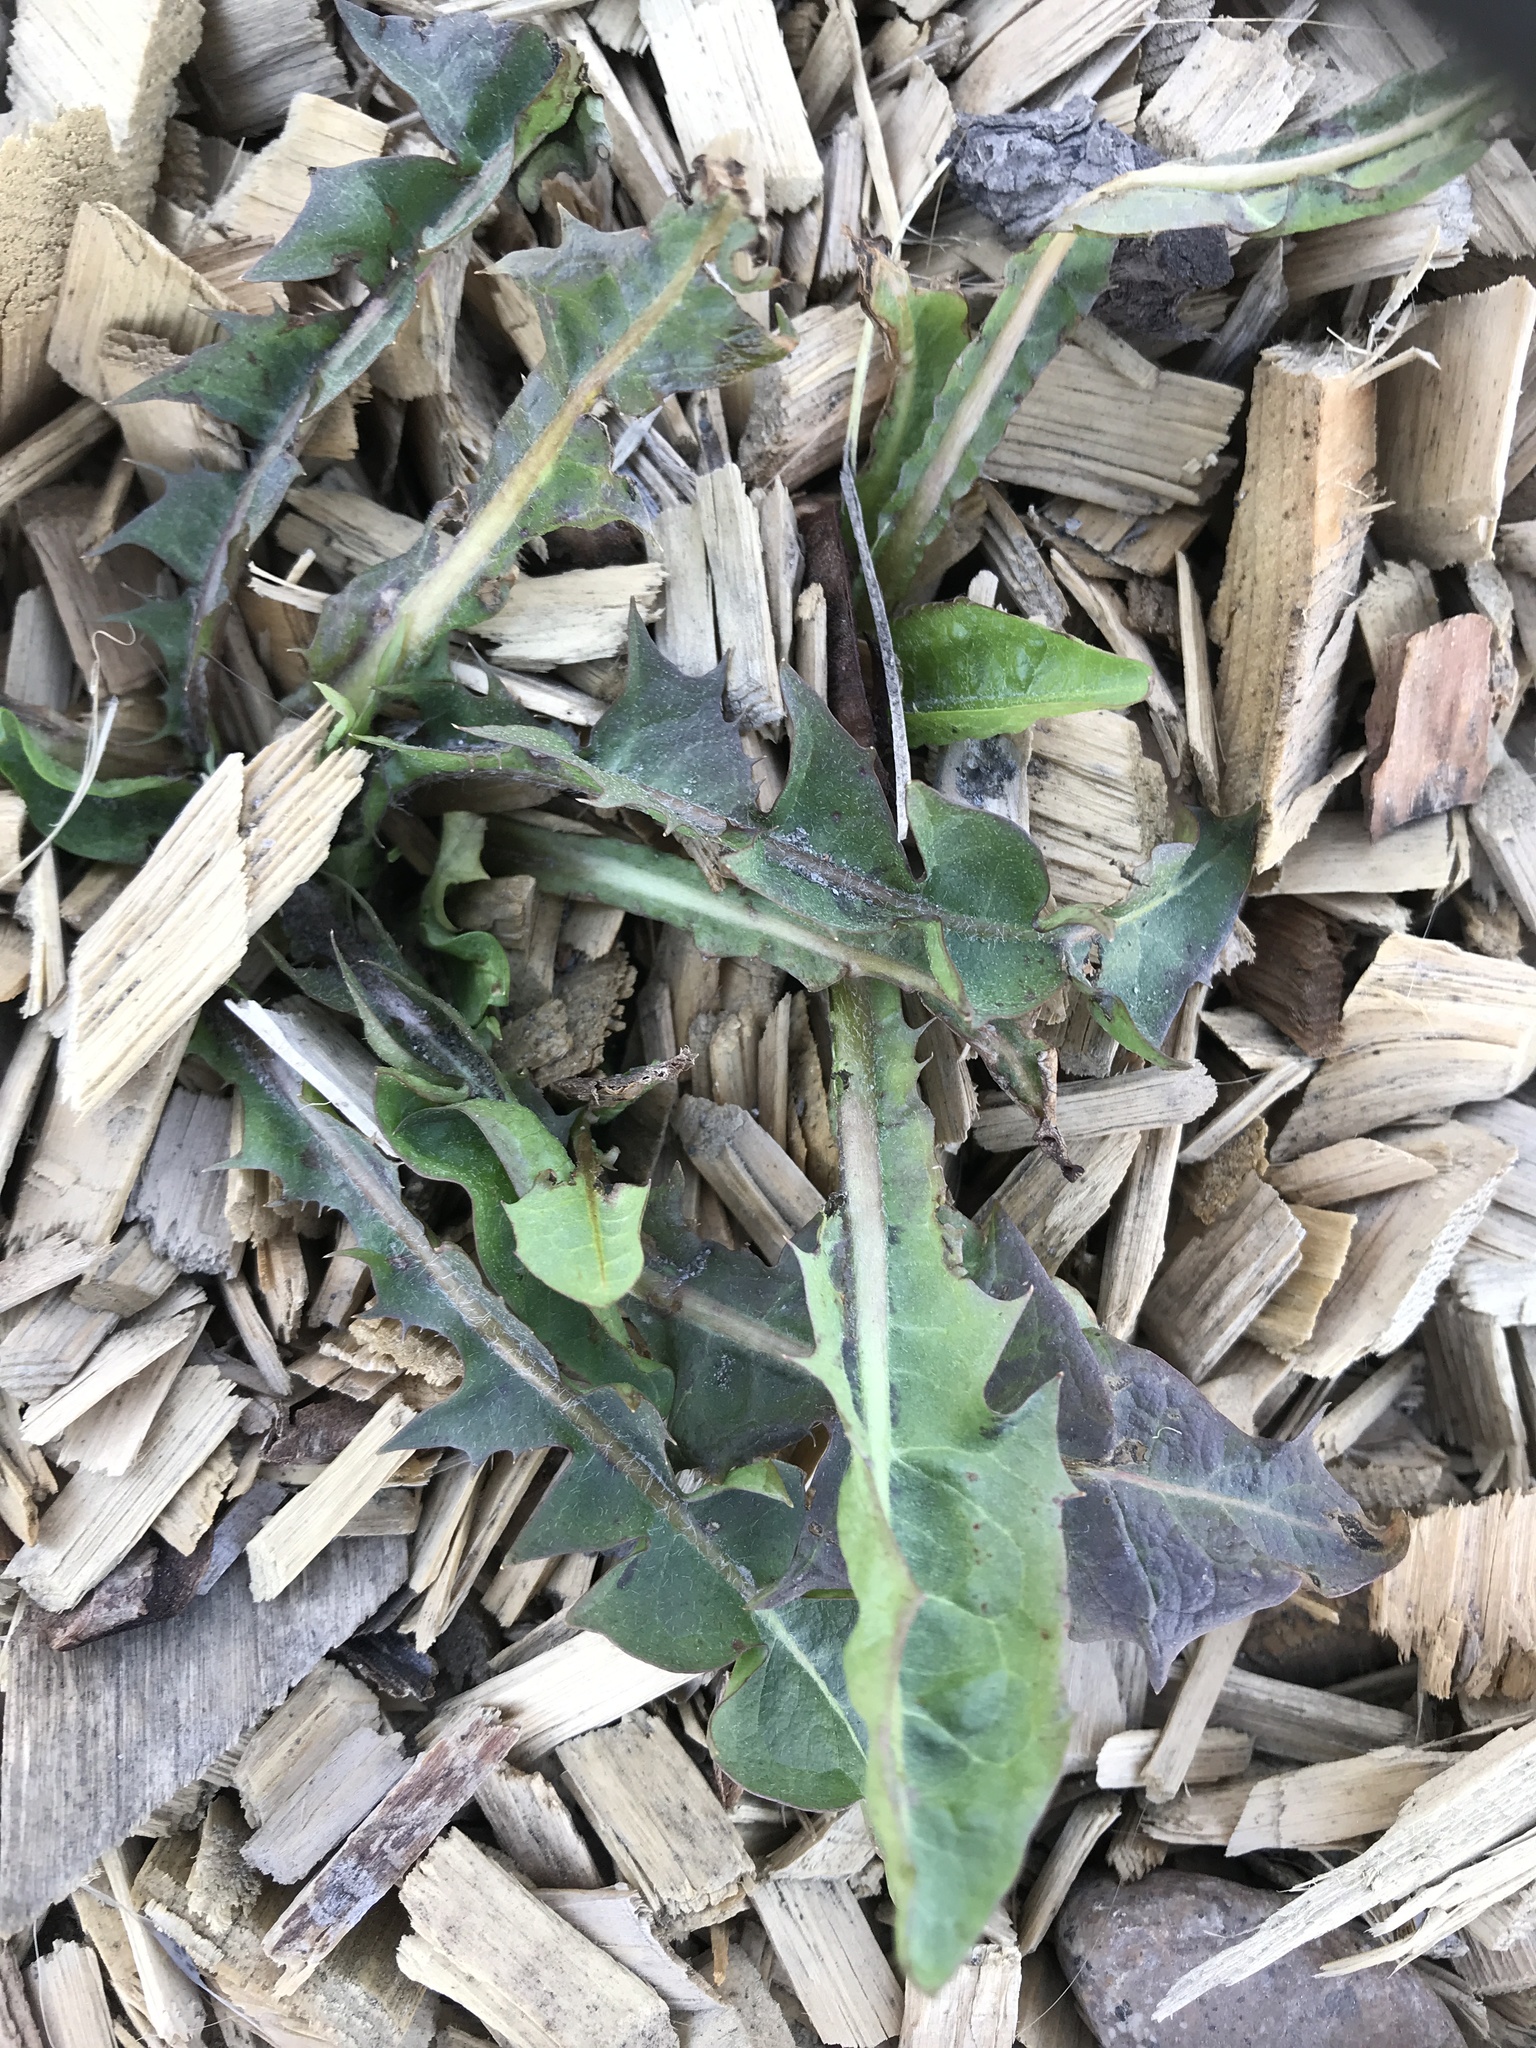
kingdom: Plantae
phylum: Tracheophyta
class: Magnoliopsida
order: Asterales
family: Asteraceae
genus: Taraxacum
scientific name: Taraxacum officinale
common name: Common dandelion
